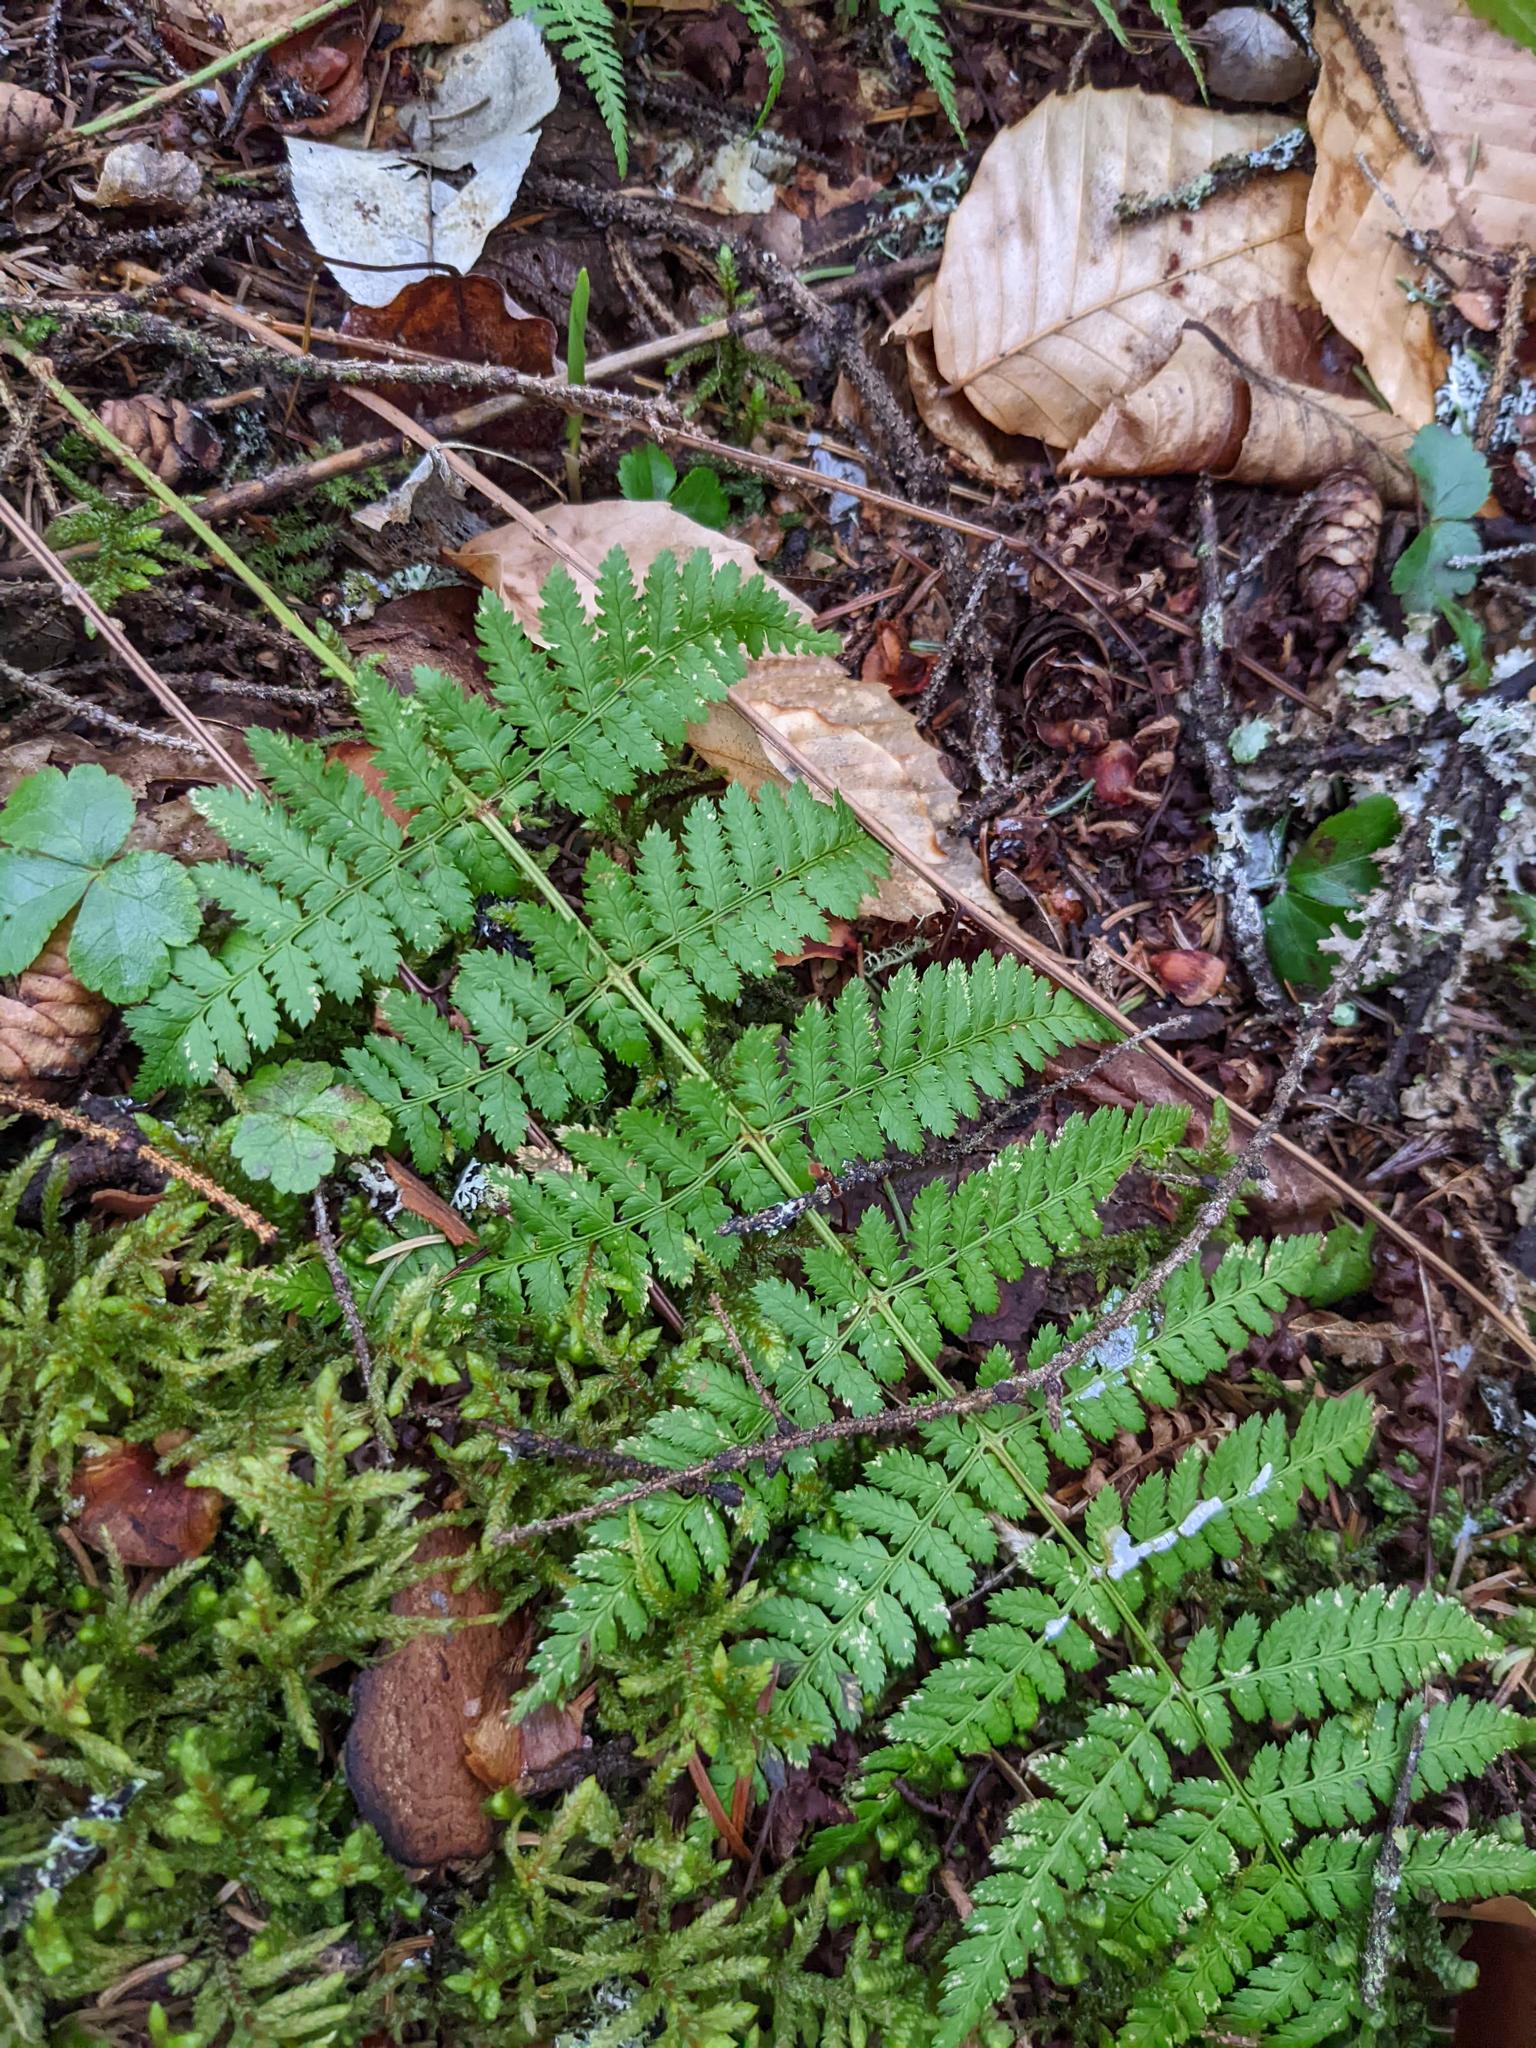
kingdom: Plantae
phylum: Tracheophyta
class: Polypodiopsida
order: Polypodiales
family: Dryopteridaceae
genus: Dryopteris
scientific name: Dryopteris intermedia
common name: Evergreen wood fern
